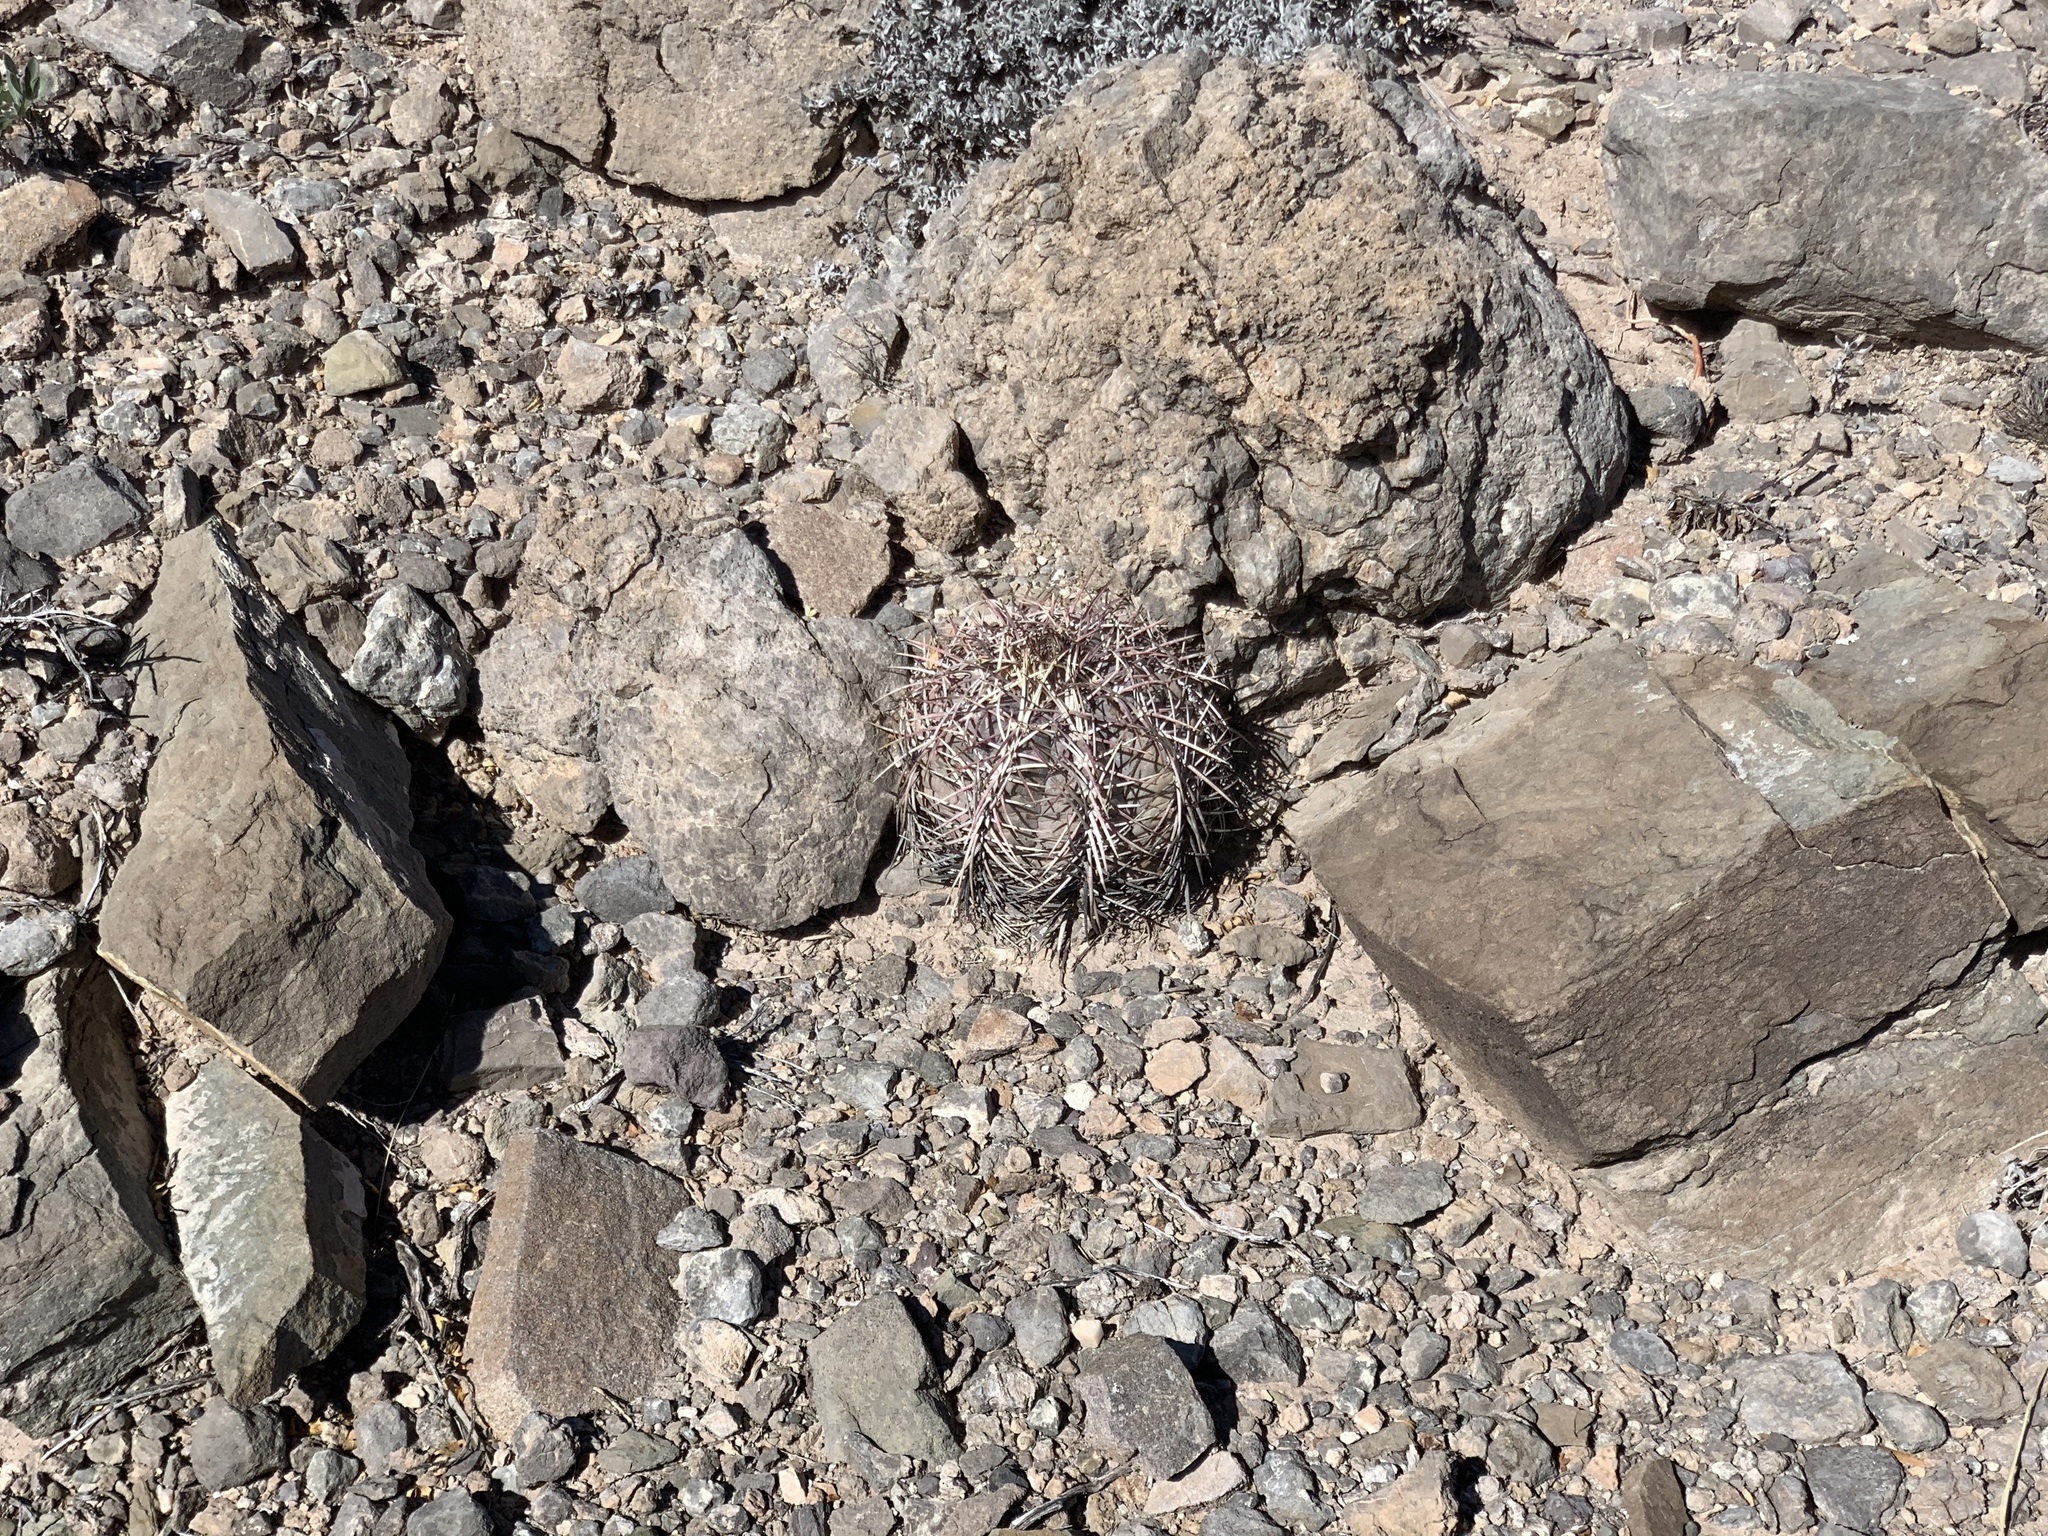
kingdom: Plantae
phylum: Tracheophyta
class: Magnoliopsida
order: Caryophyllales
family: Cactaceae
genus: Echinocactus
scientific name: Echinocactus horizonthalonius
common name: Devilshead
